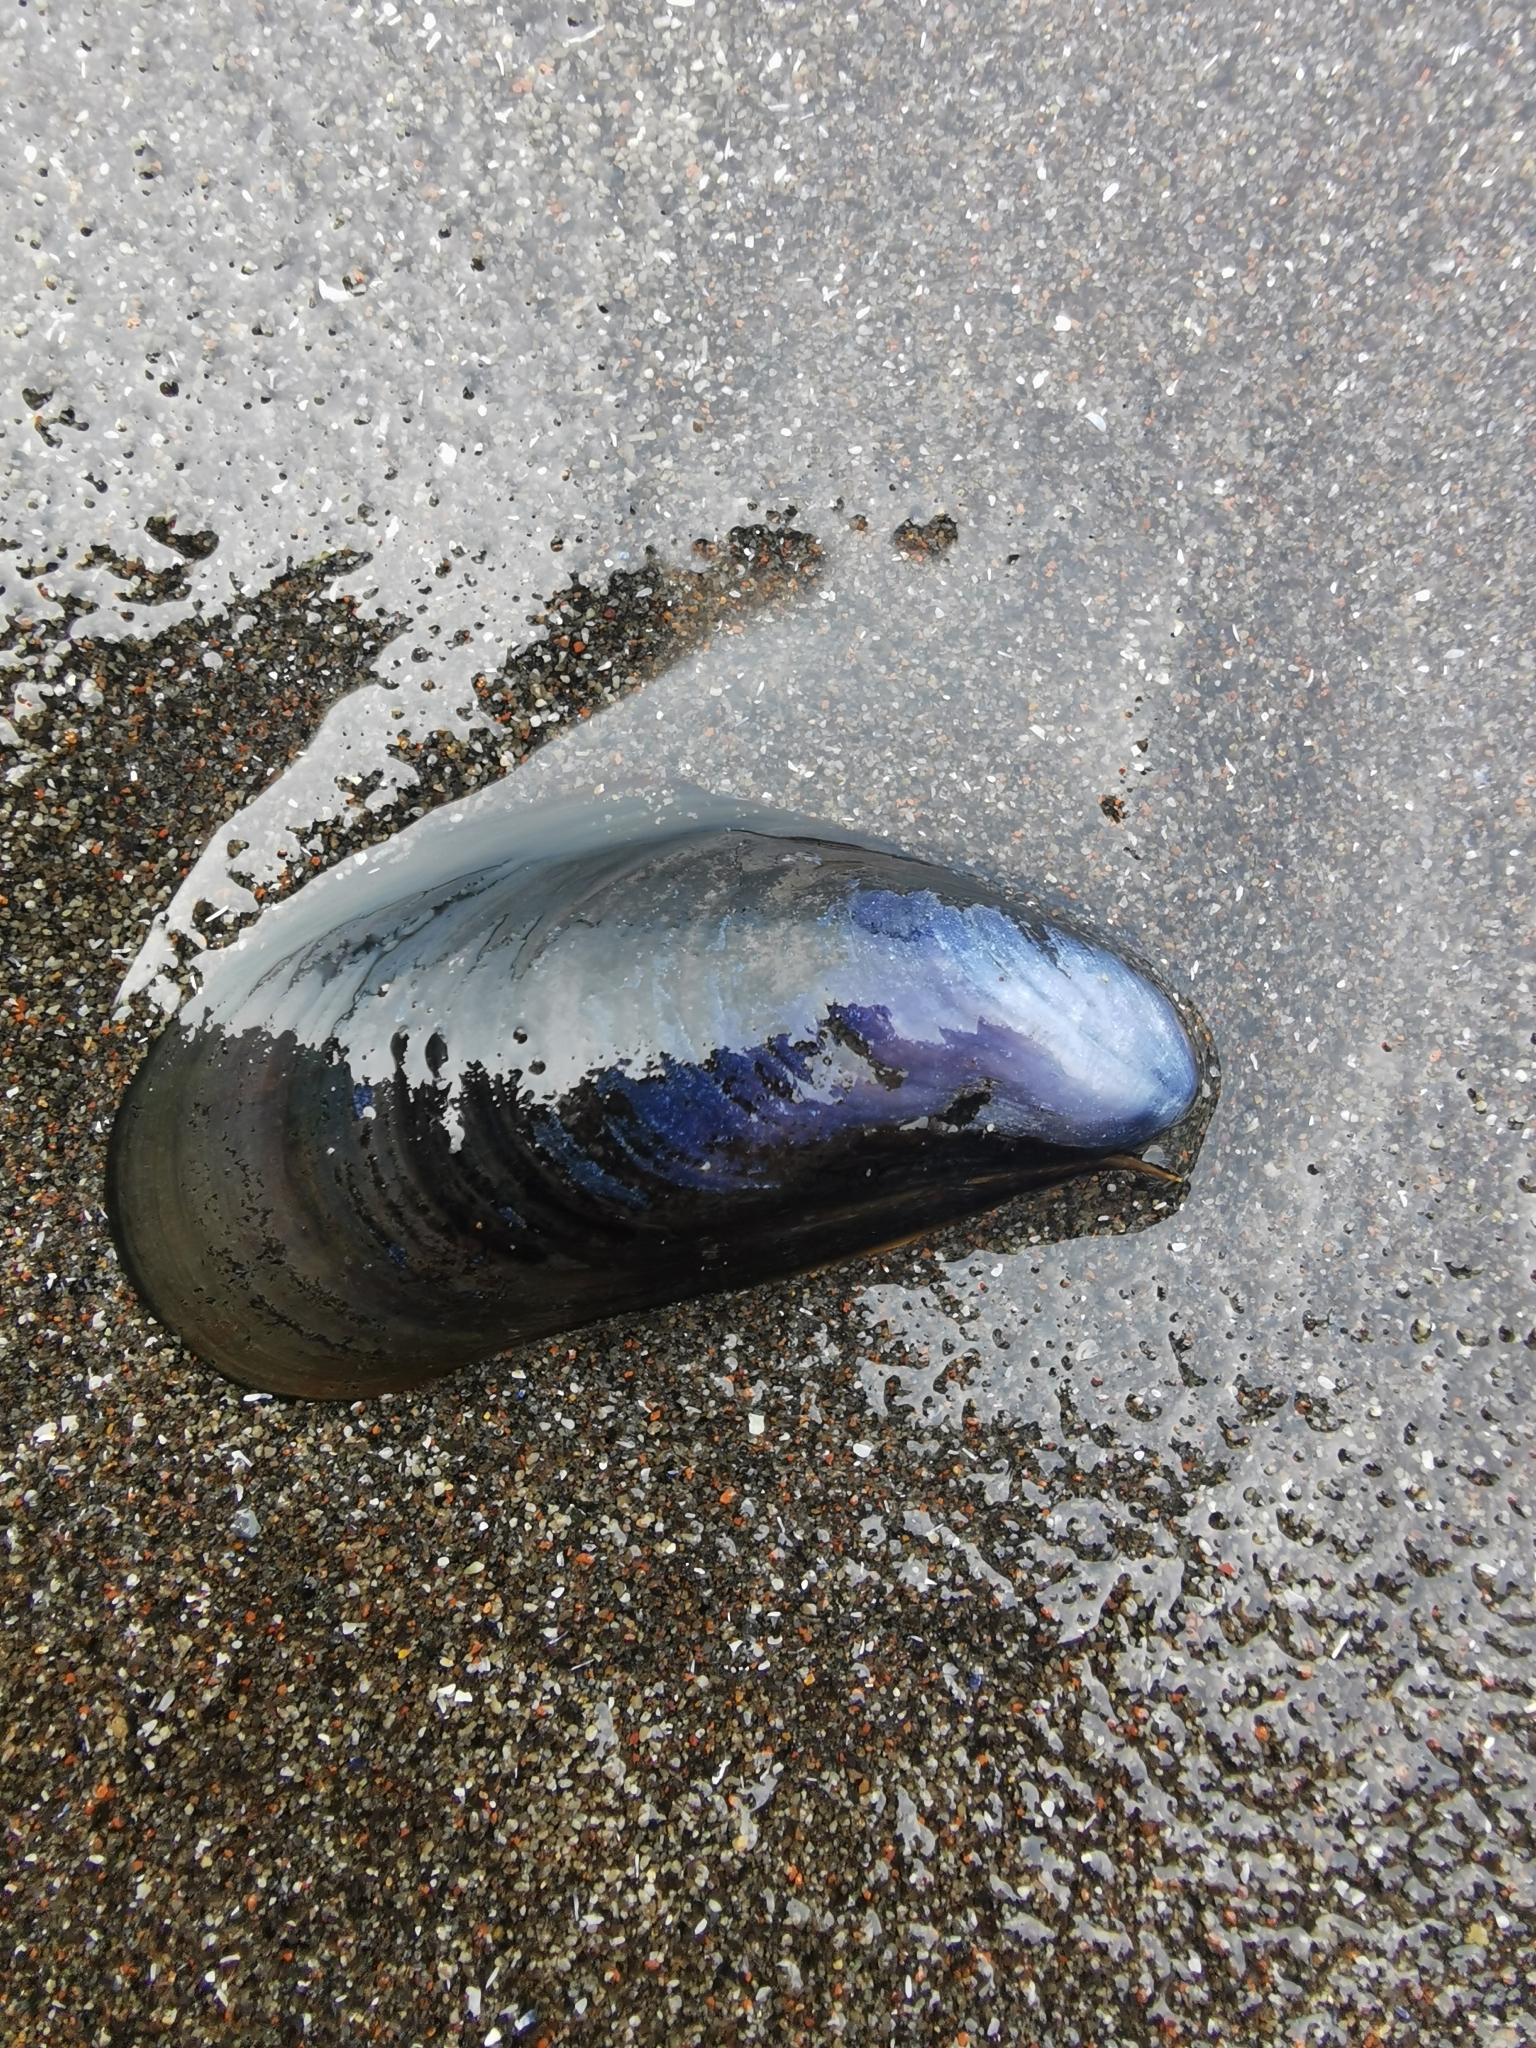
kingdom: Animalia
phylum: Mollusca
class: Bivalvia
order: Mytilida
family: Mytilidae
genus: Mytilus
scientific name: Mytilus trossulus
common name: Northern blue mussel
